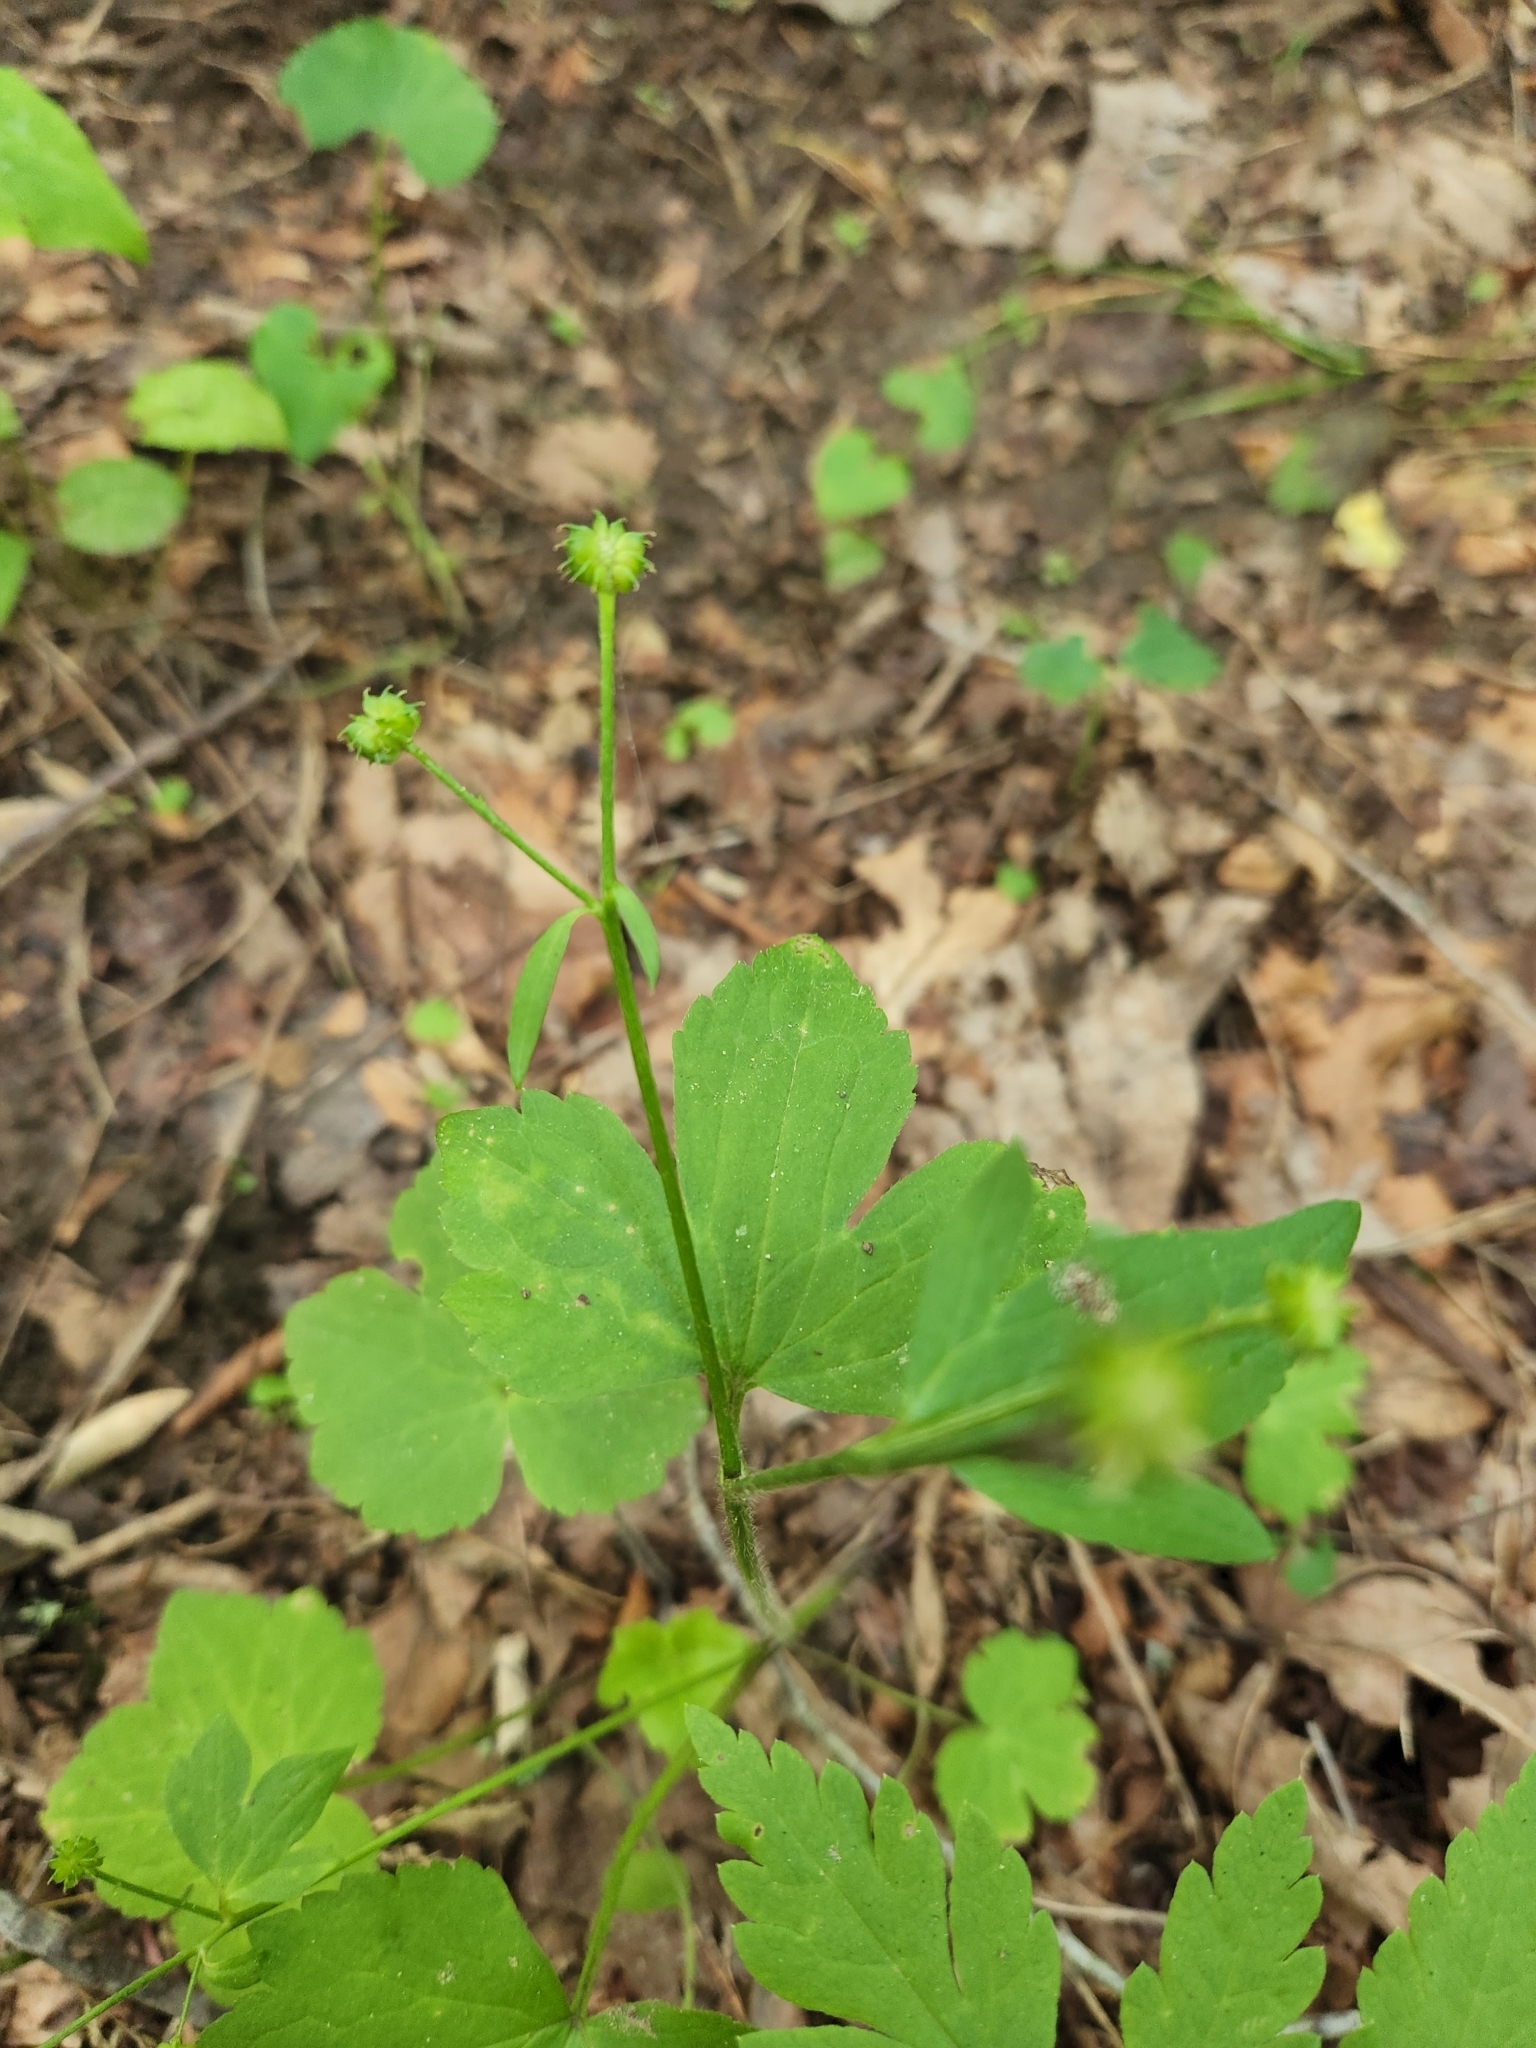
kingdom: Plantae
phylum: Tracheophyta
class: Magnoliopsida
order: Ranunculales
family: Ranunculaceae
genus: Ranunculus
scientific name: Ranunculus recurvatus
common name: Blisterwort
